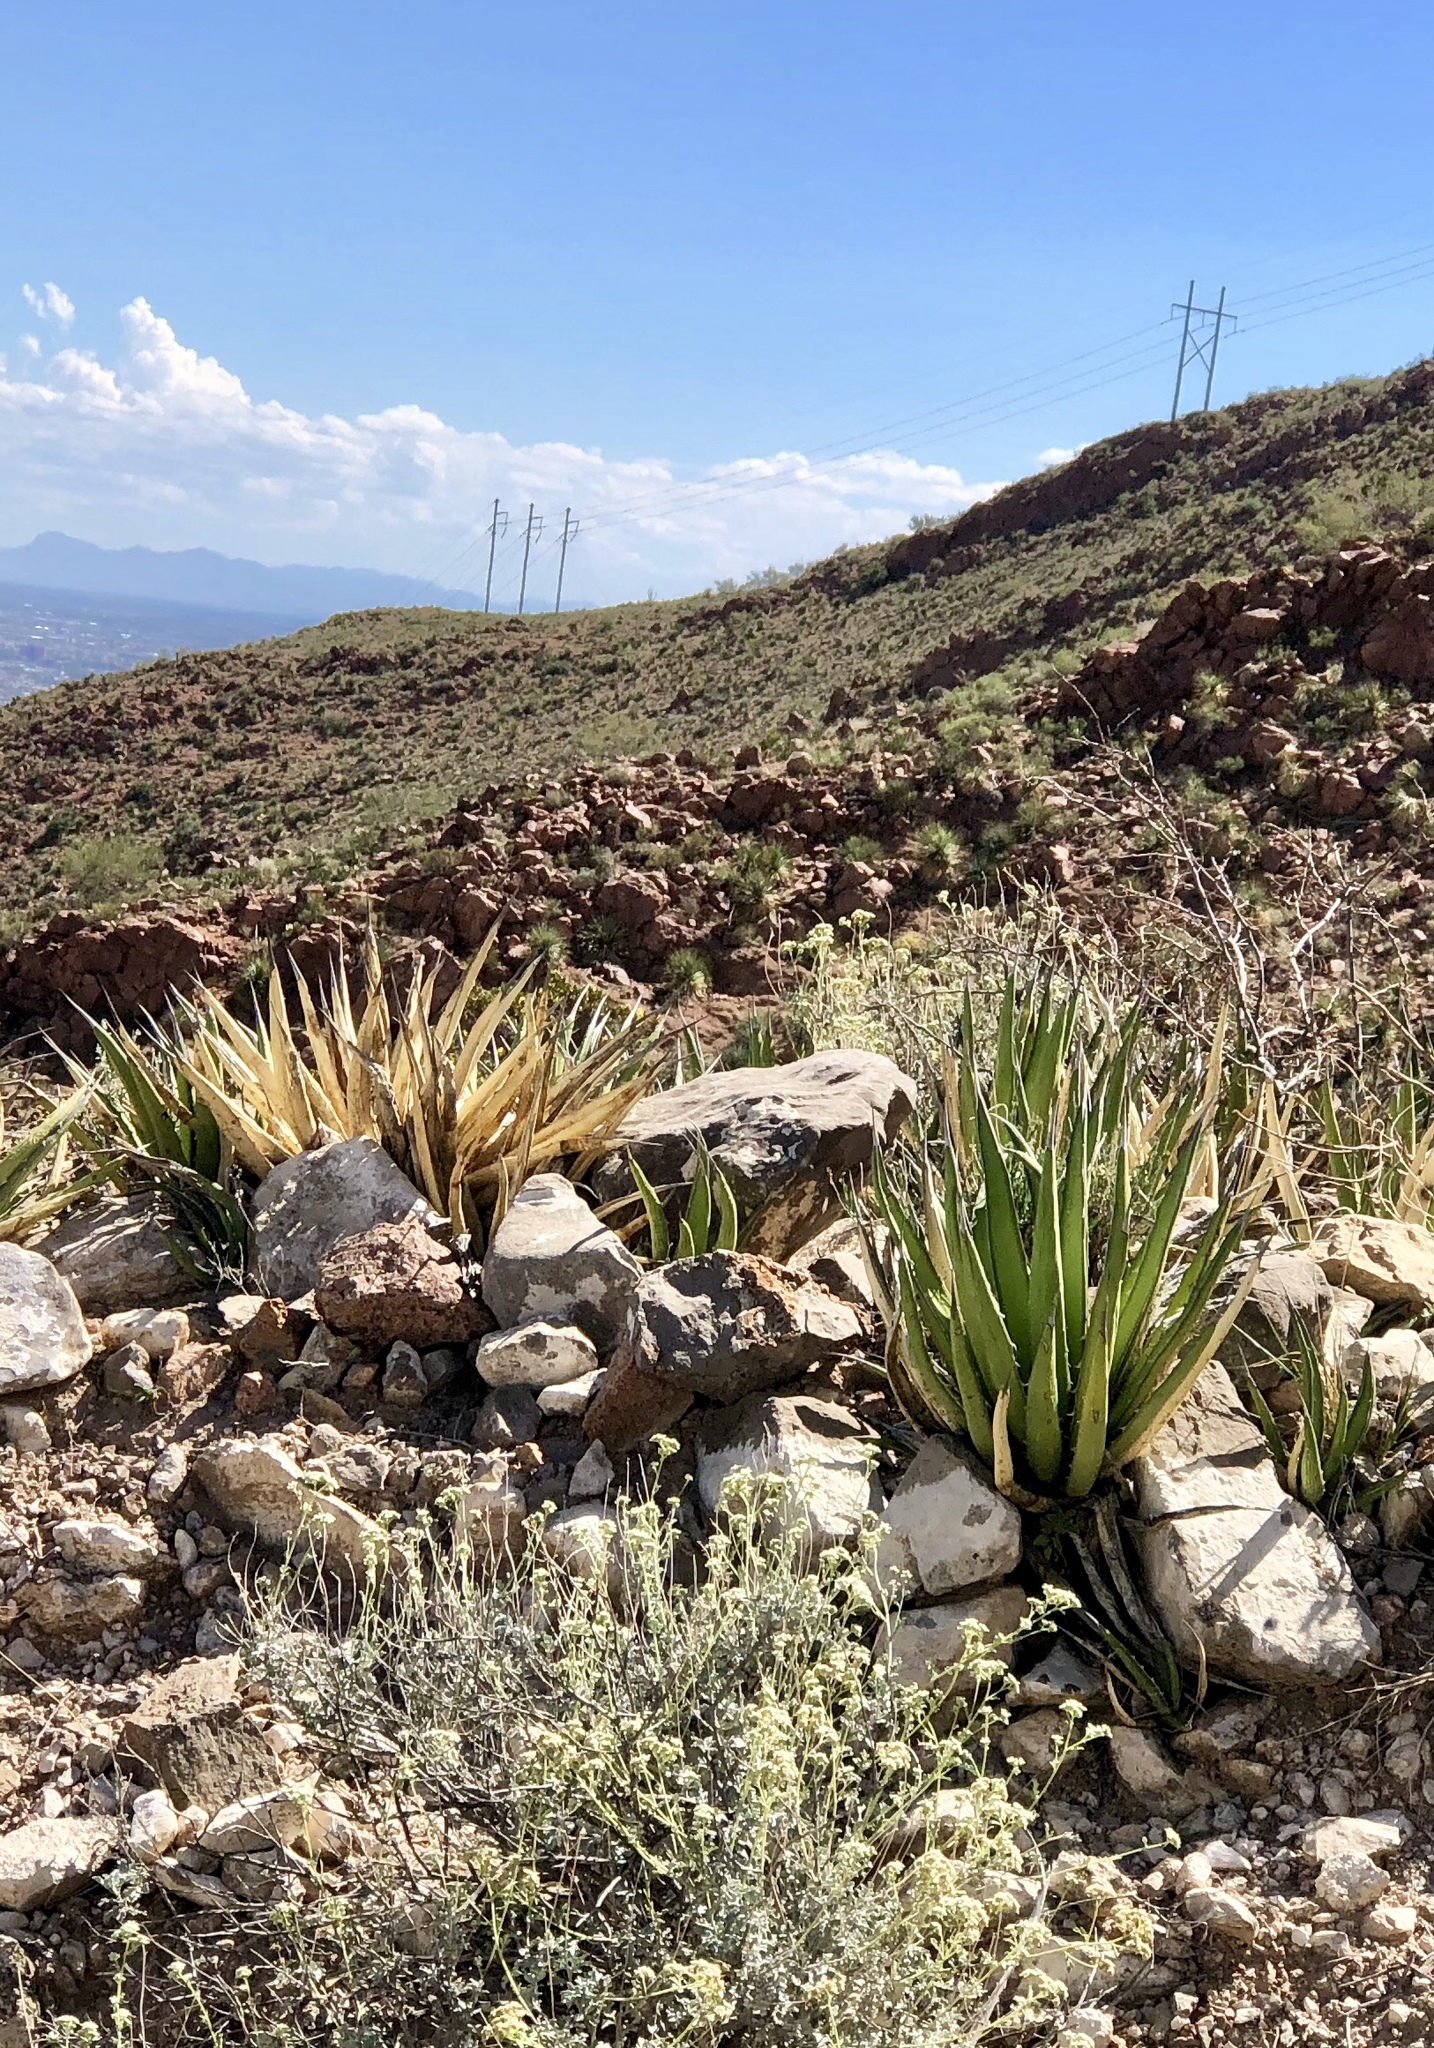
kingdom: Plantae
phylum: Tracheophyta
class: Liliopsida
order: Asparagales
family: Asparagaceae
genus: Agave
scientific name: Agave lechuguilla
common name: Lecheguilla agave
